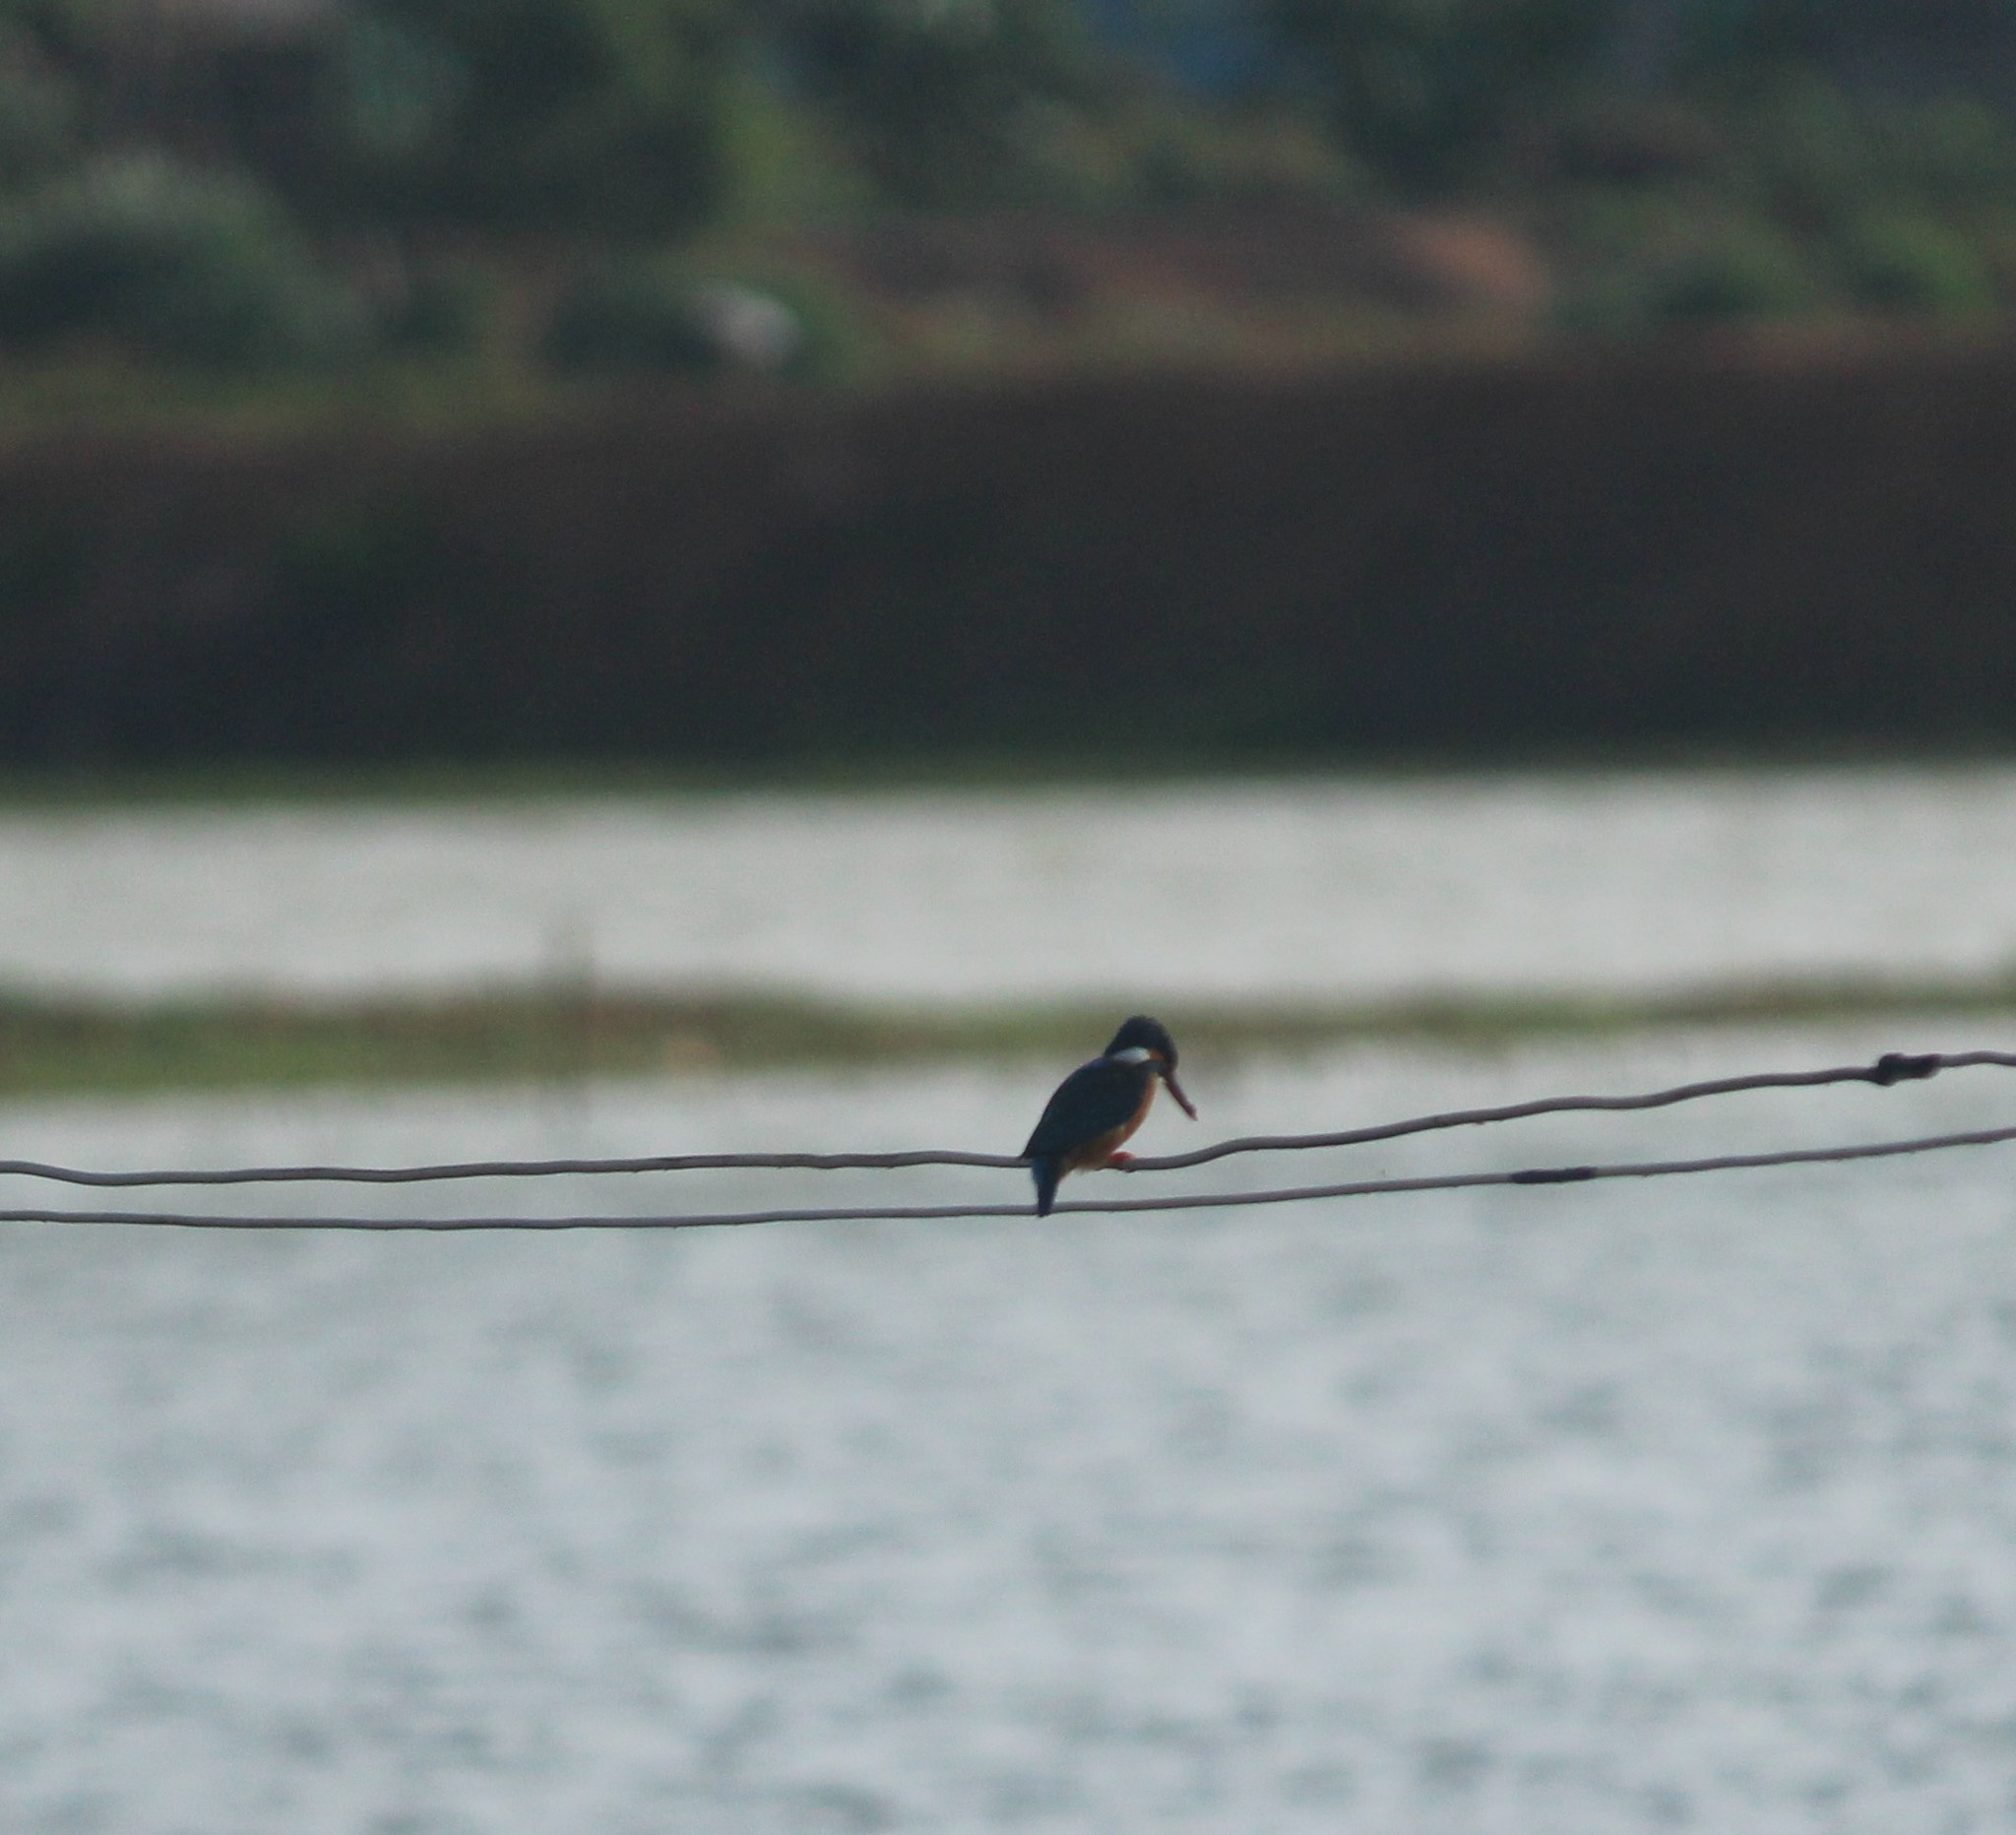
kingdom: Animalia
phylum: Chordata
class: Aves
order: Coraciiformes
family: Alcedinidae
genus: Alcedo
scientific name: Alcedo atthis
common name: Common kingfisher
